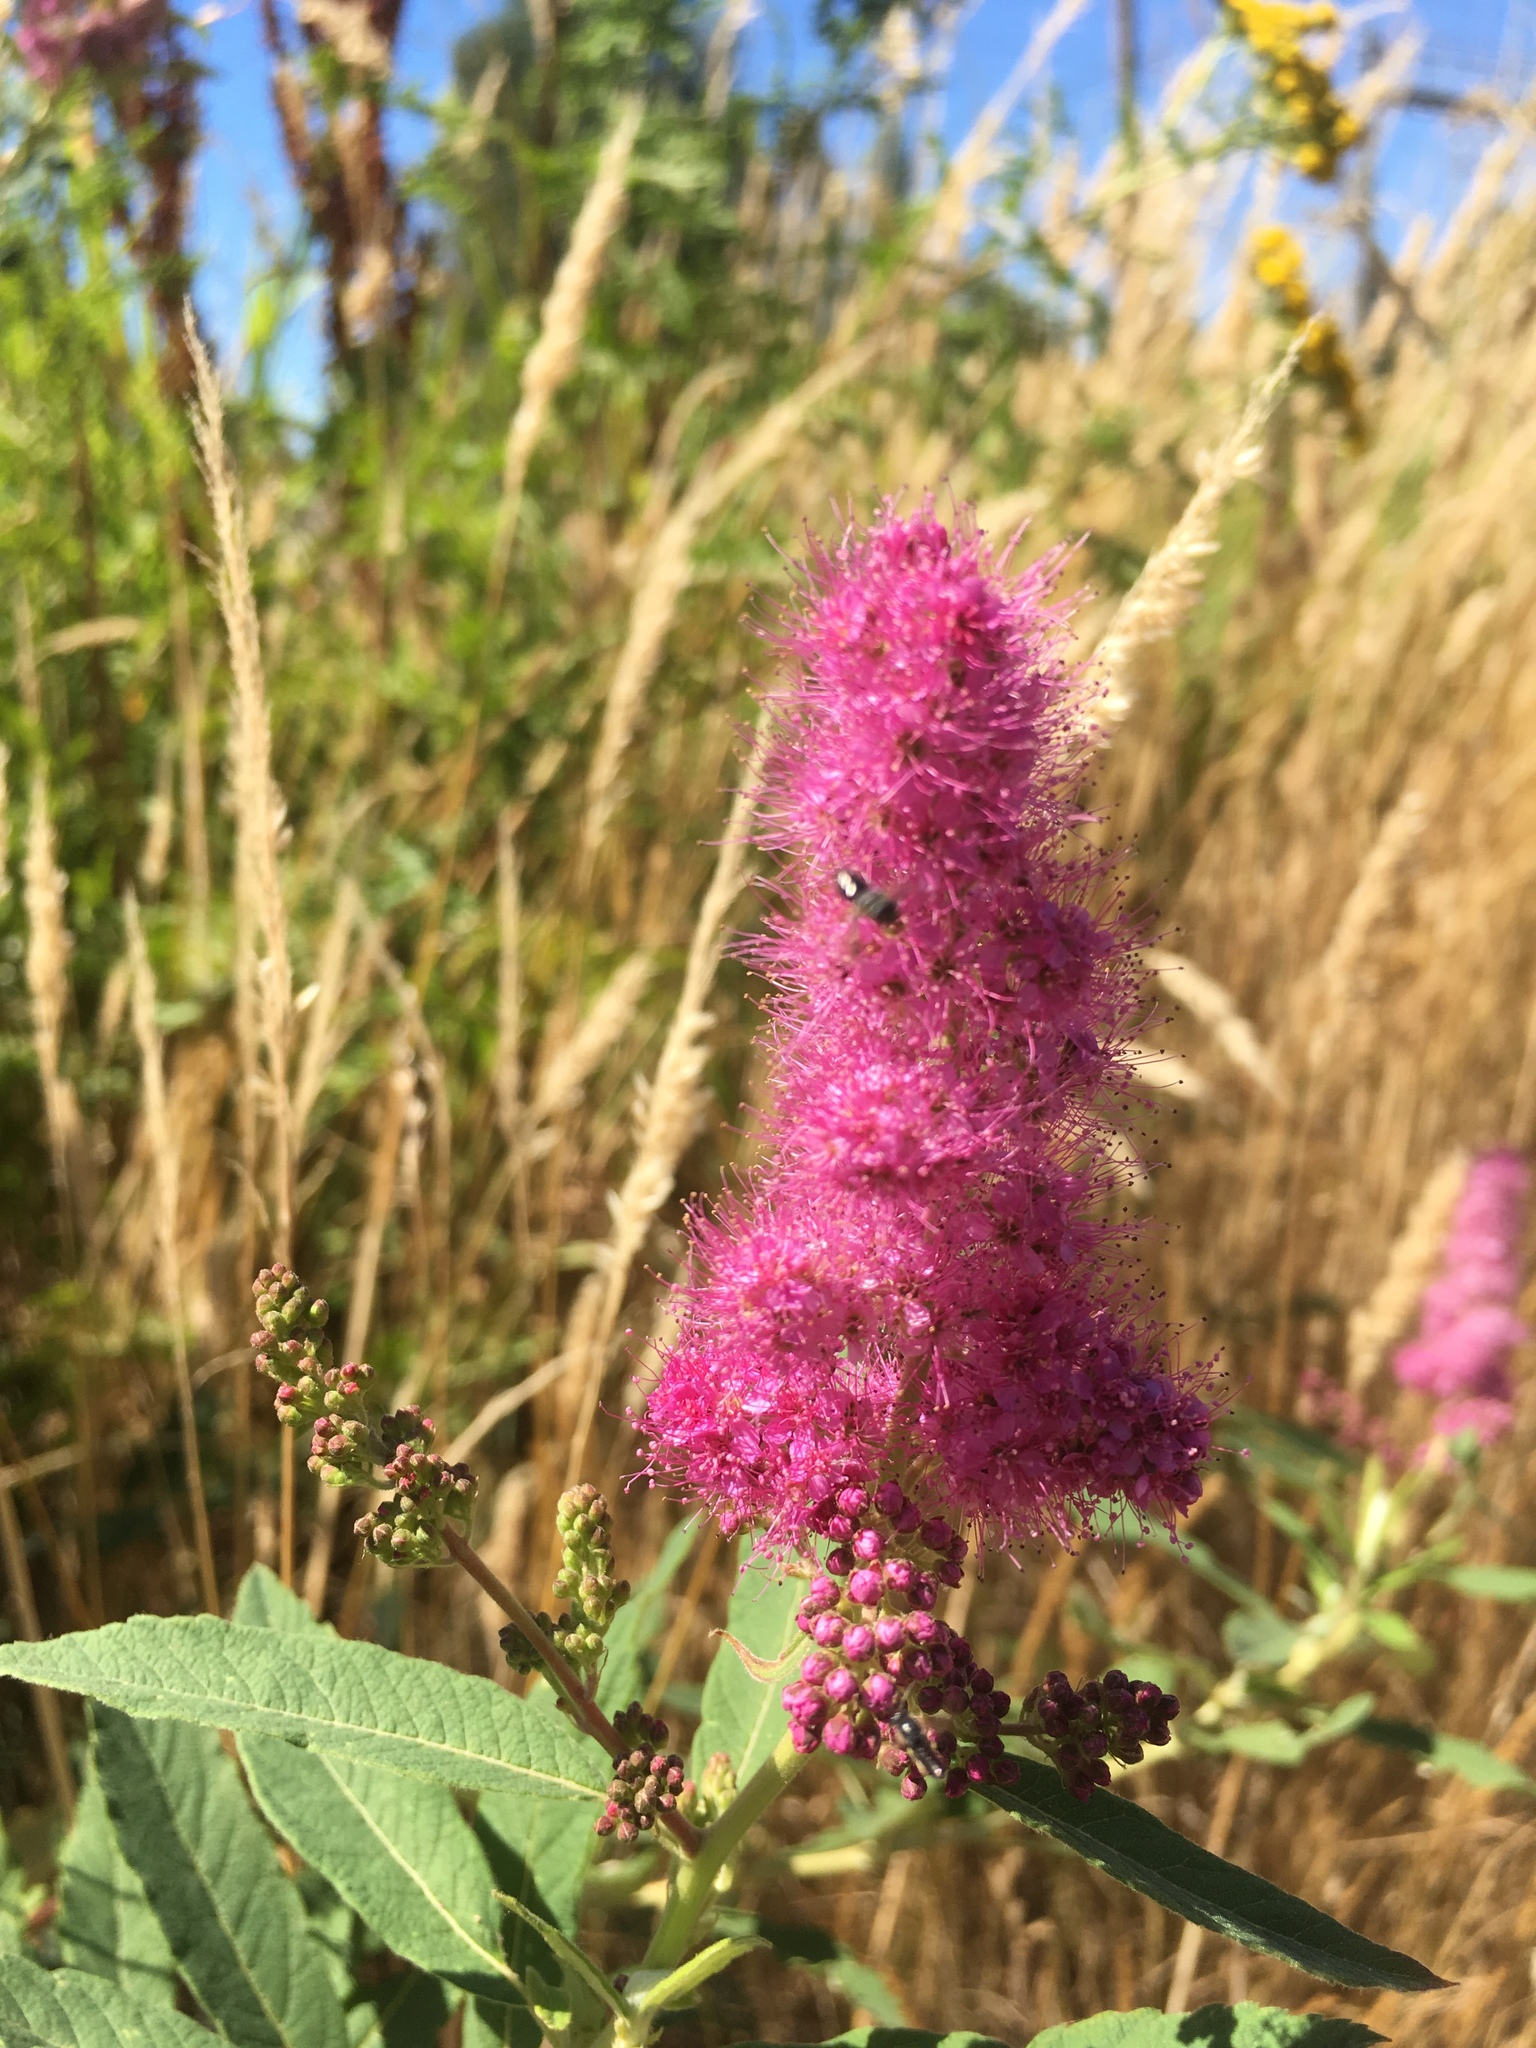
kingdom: Plantae
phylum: Tracheophyta
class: Magnoliopsida
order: Rosales
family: Rosaceae
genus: Spiraea
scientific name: Spiraea douglasii
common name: Steeplebush
